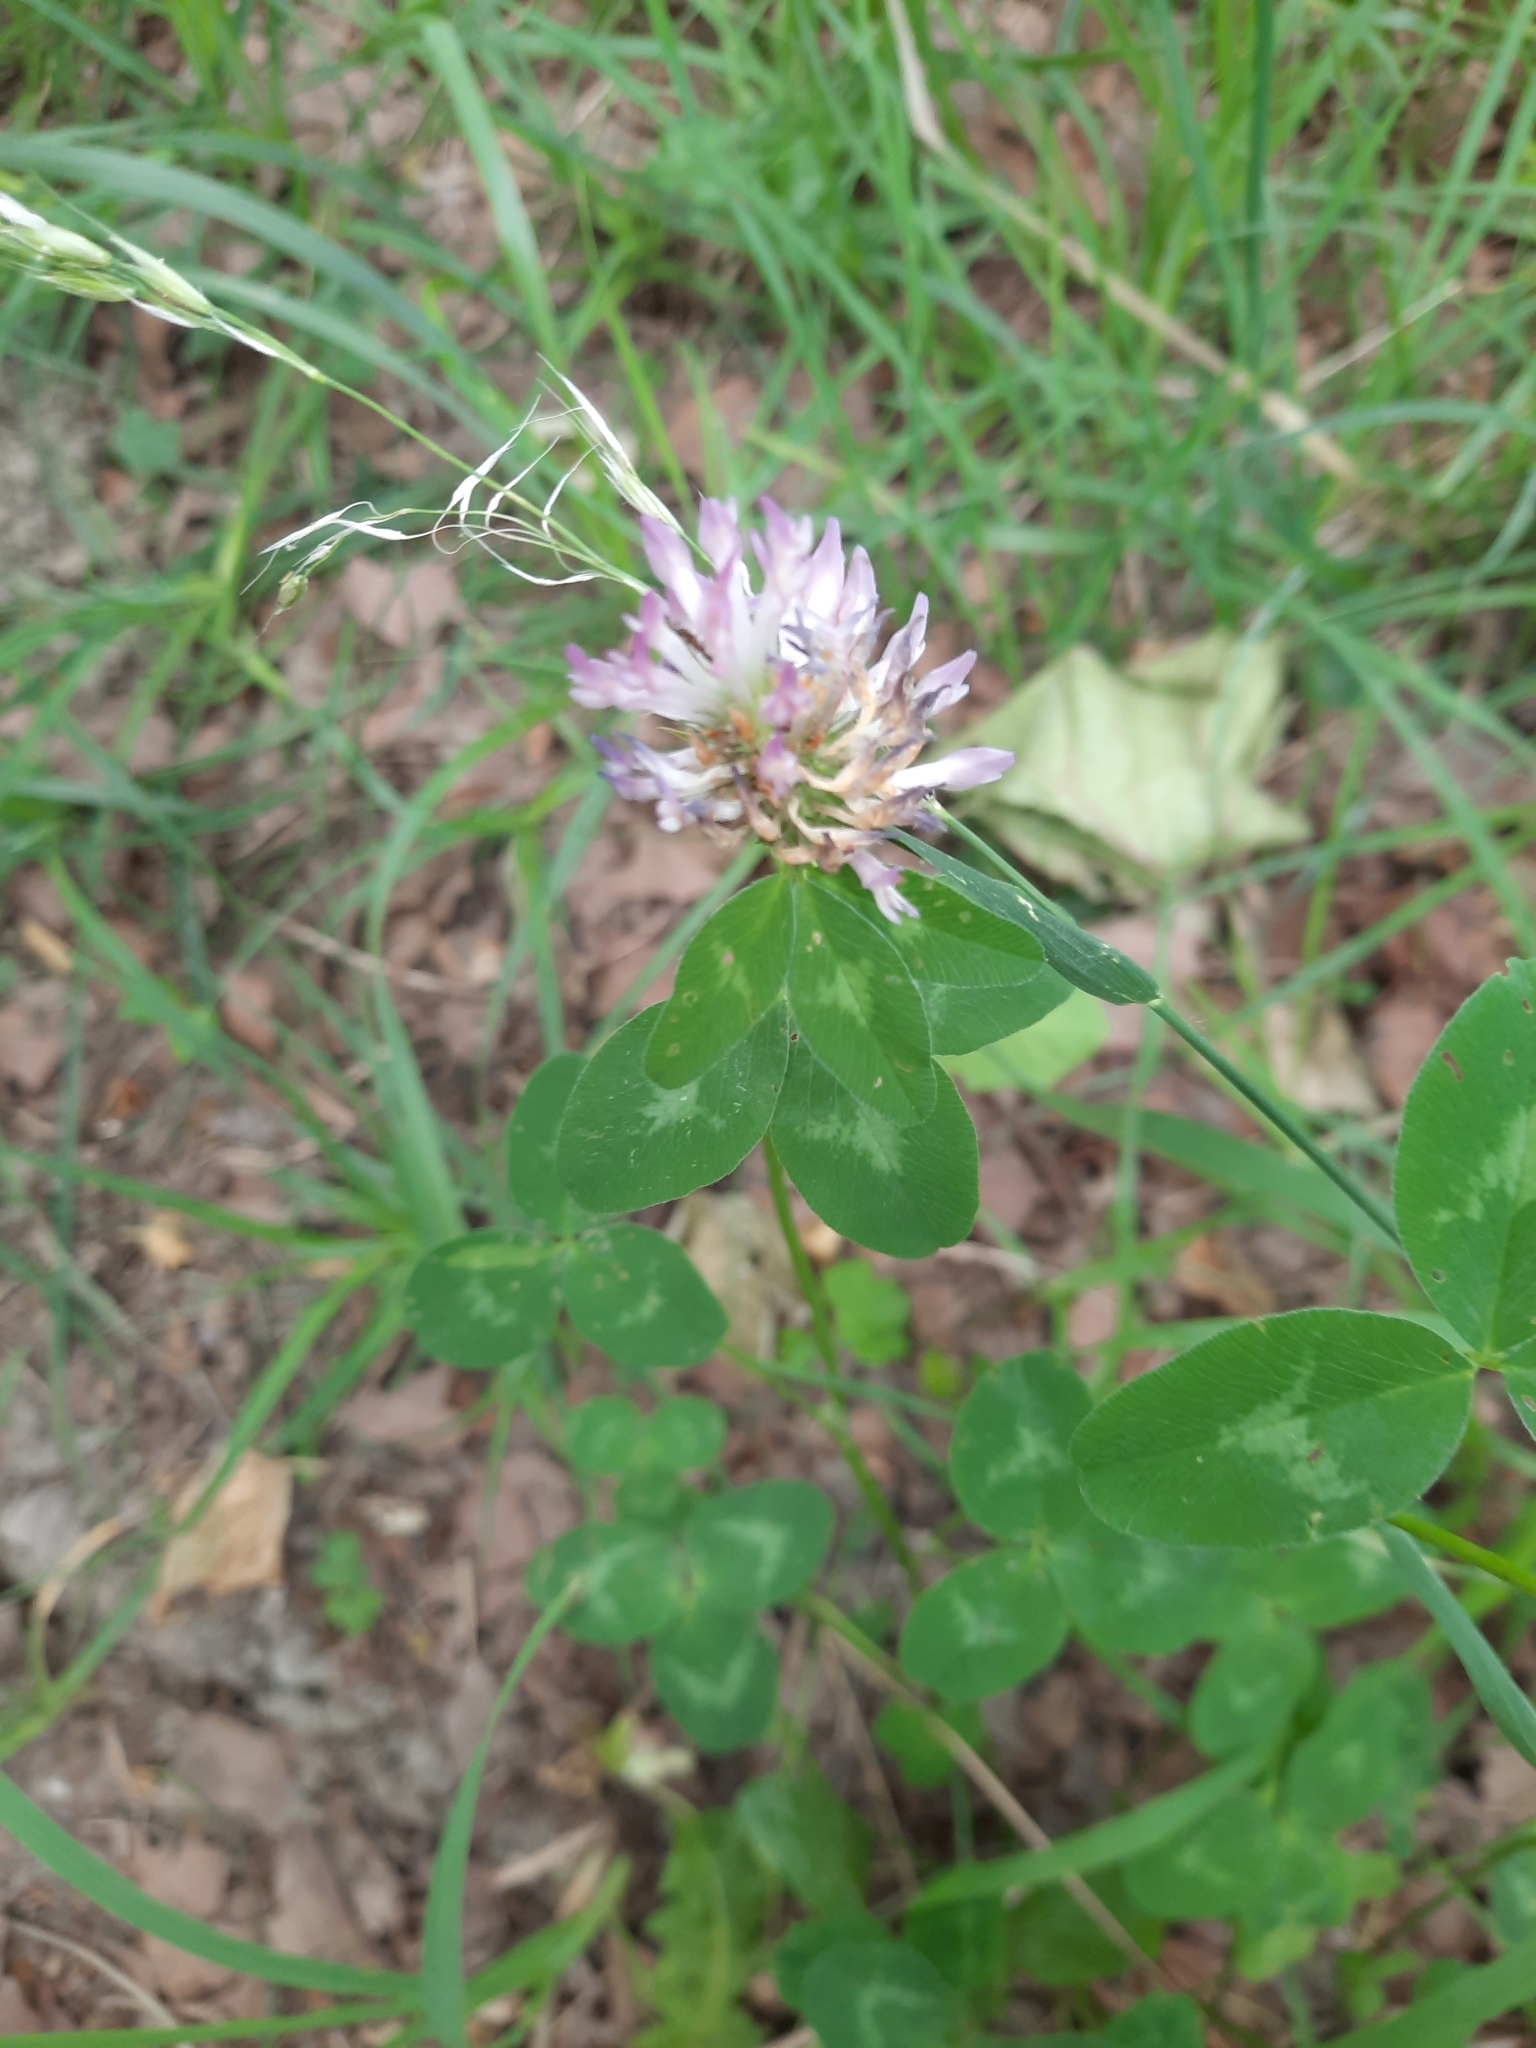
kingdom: Plantae
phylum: Tracheophyta
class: Magnoliopsida
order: Fabales
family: Fabaceae
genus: Trifolium
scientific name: Trifolium pratense
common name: Red clover
